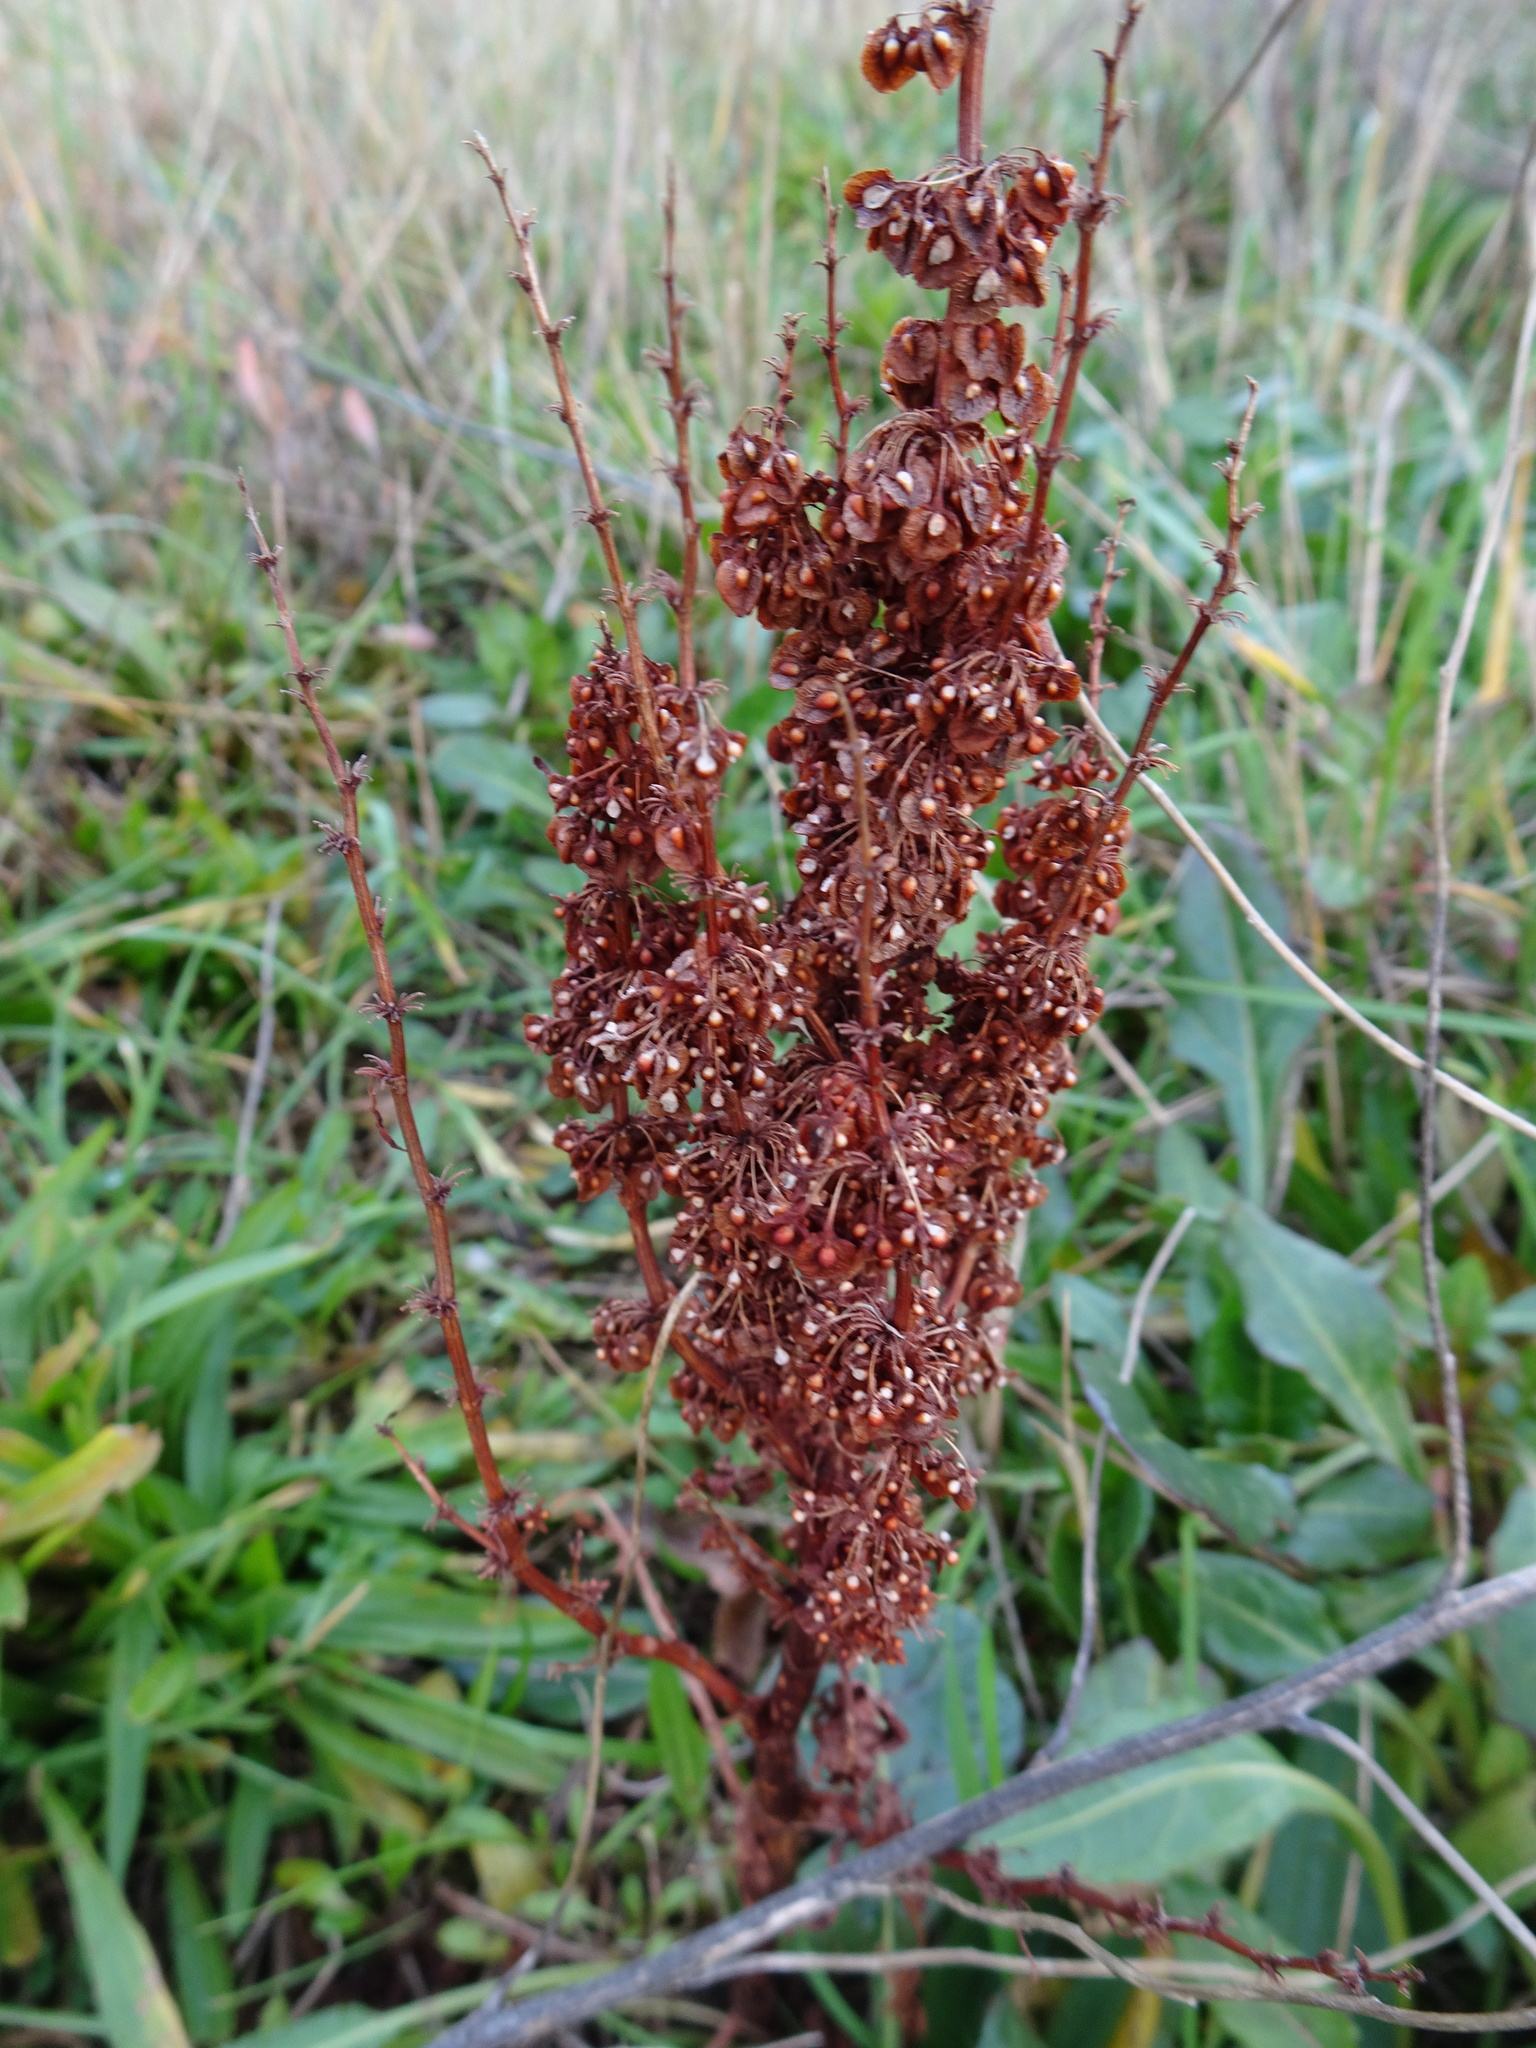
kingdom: Plantae
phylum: Tracheophyta
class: Magnoliopsida
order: Caryophyllales
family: Polygonaceae
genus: Rumex
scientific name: Rumex crispus
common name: Curled dock
